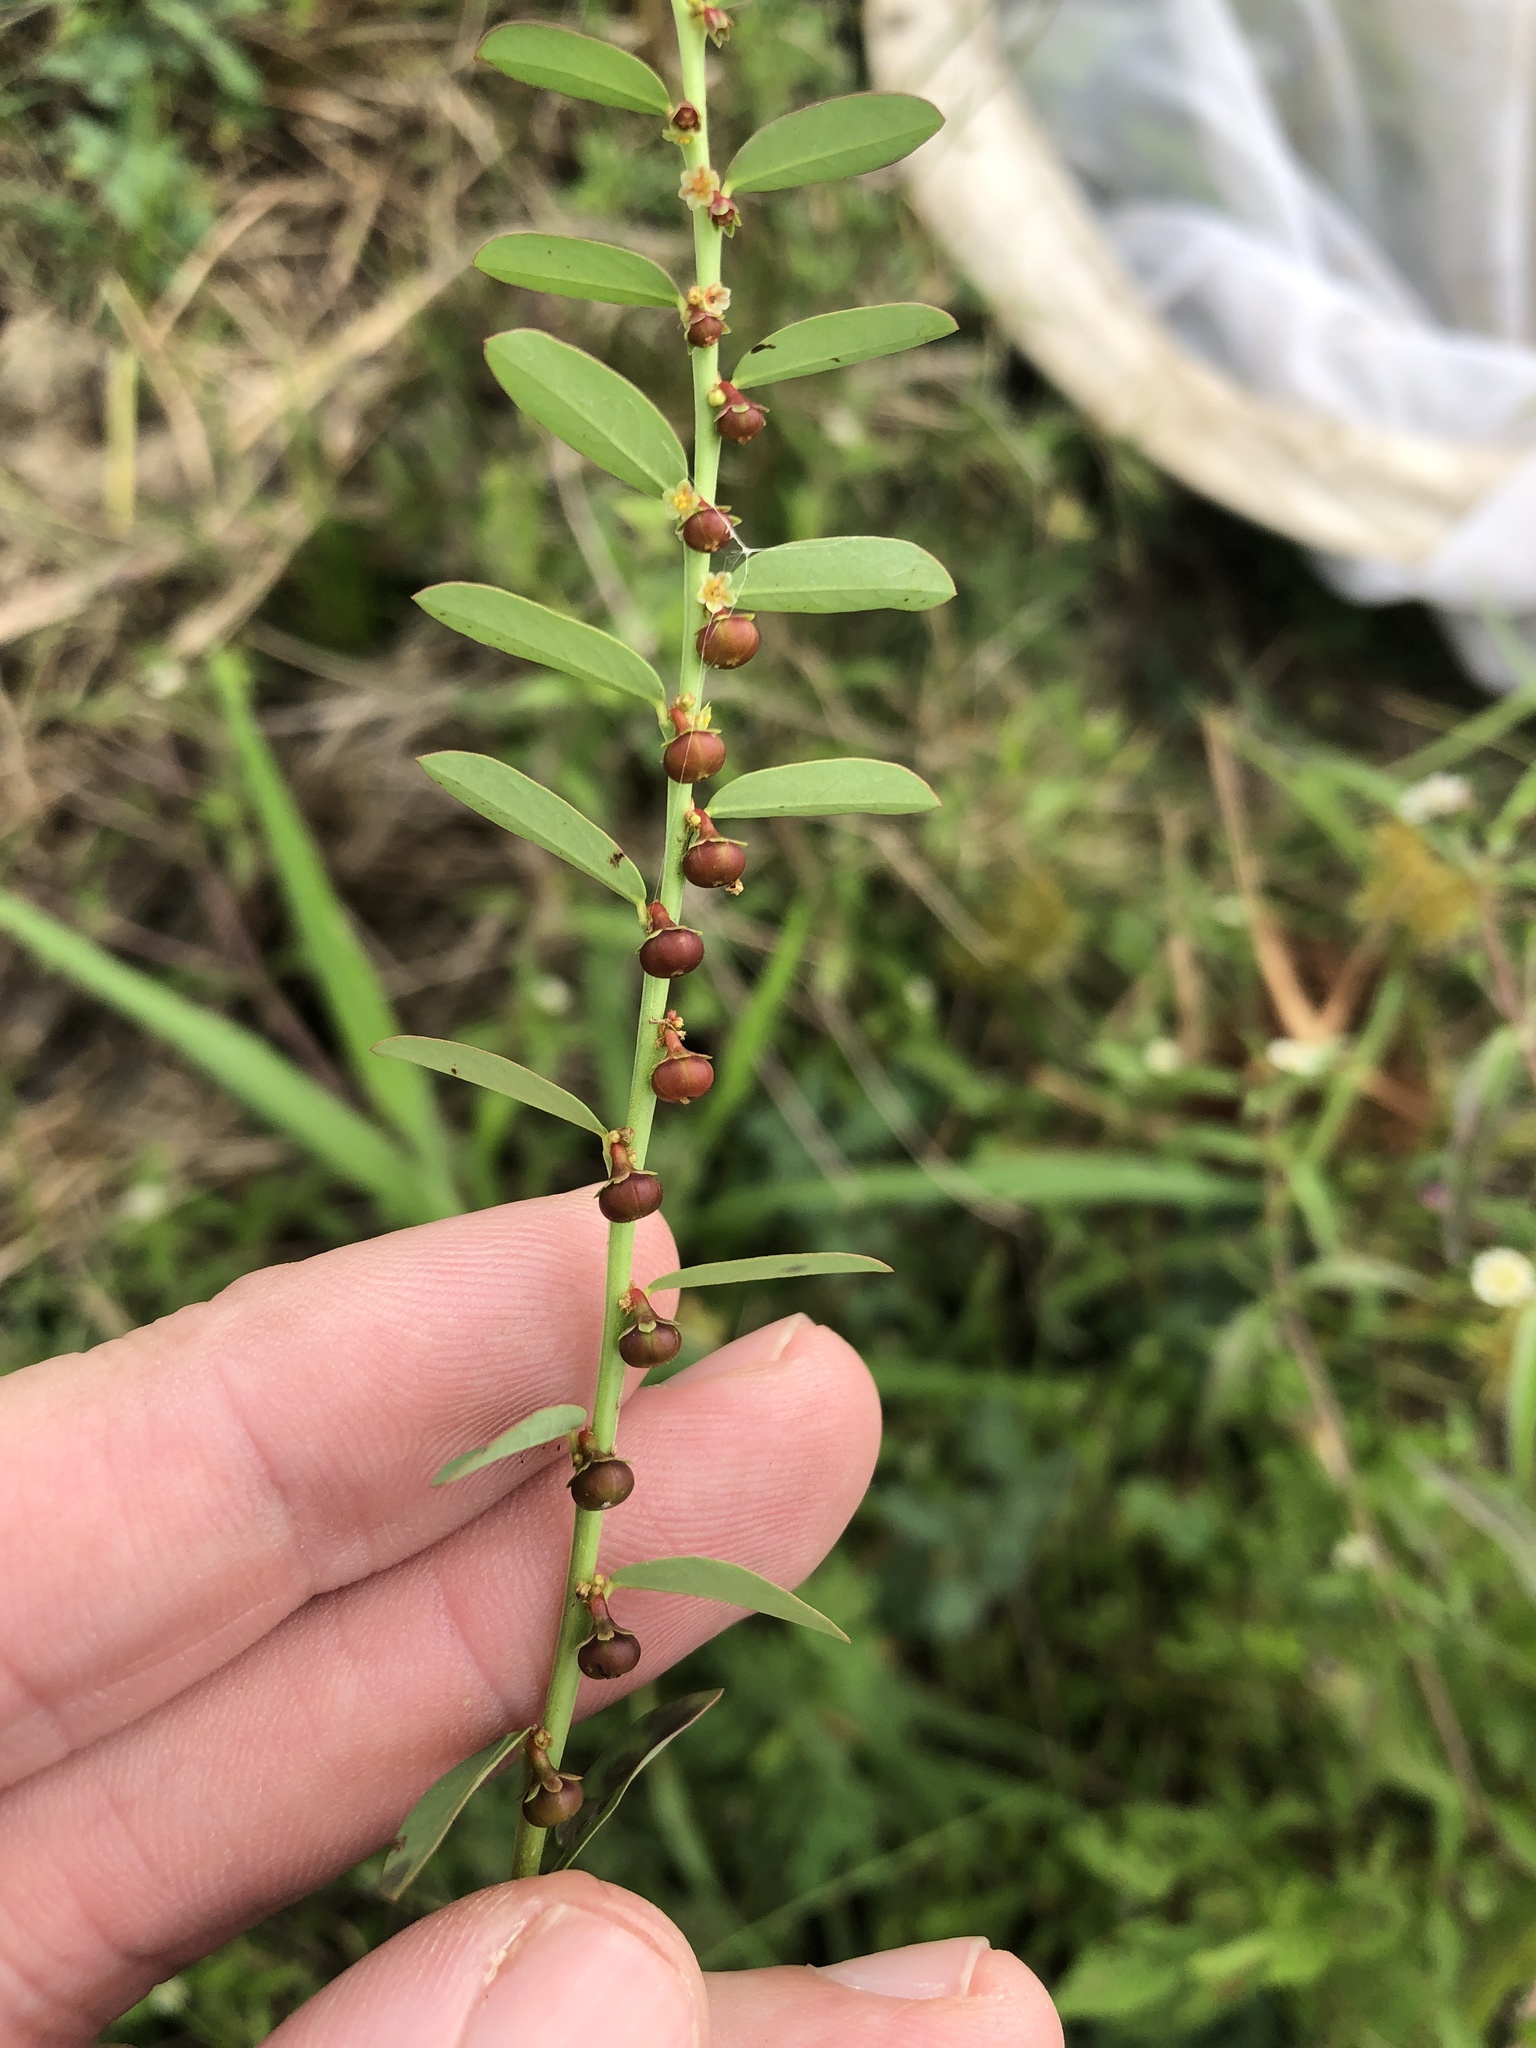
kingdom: Plantae
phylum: Tracheophyta
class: Magnoliopsida
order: Malpighiales
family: Phyllanthaceae
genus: Phyllanthus
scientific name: Phyllanthus evanescens
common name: Birdseed leaf-flower
